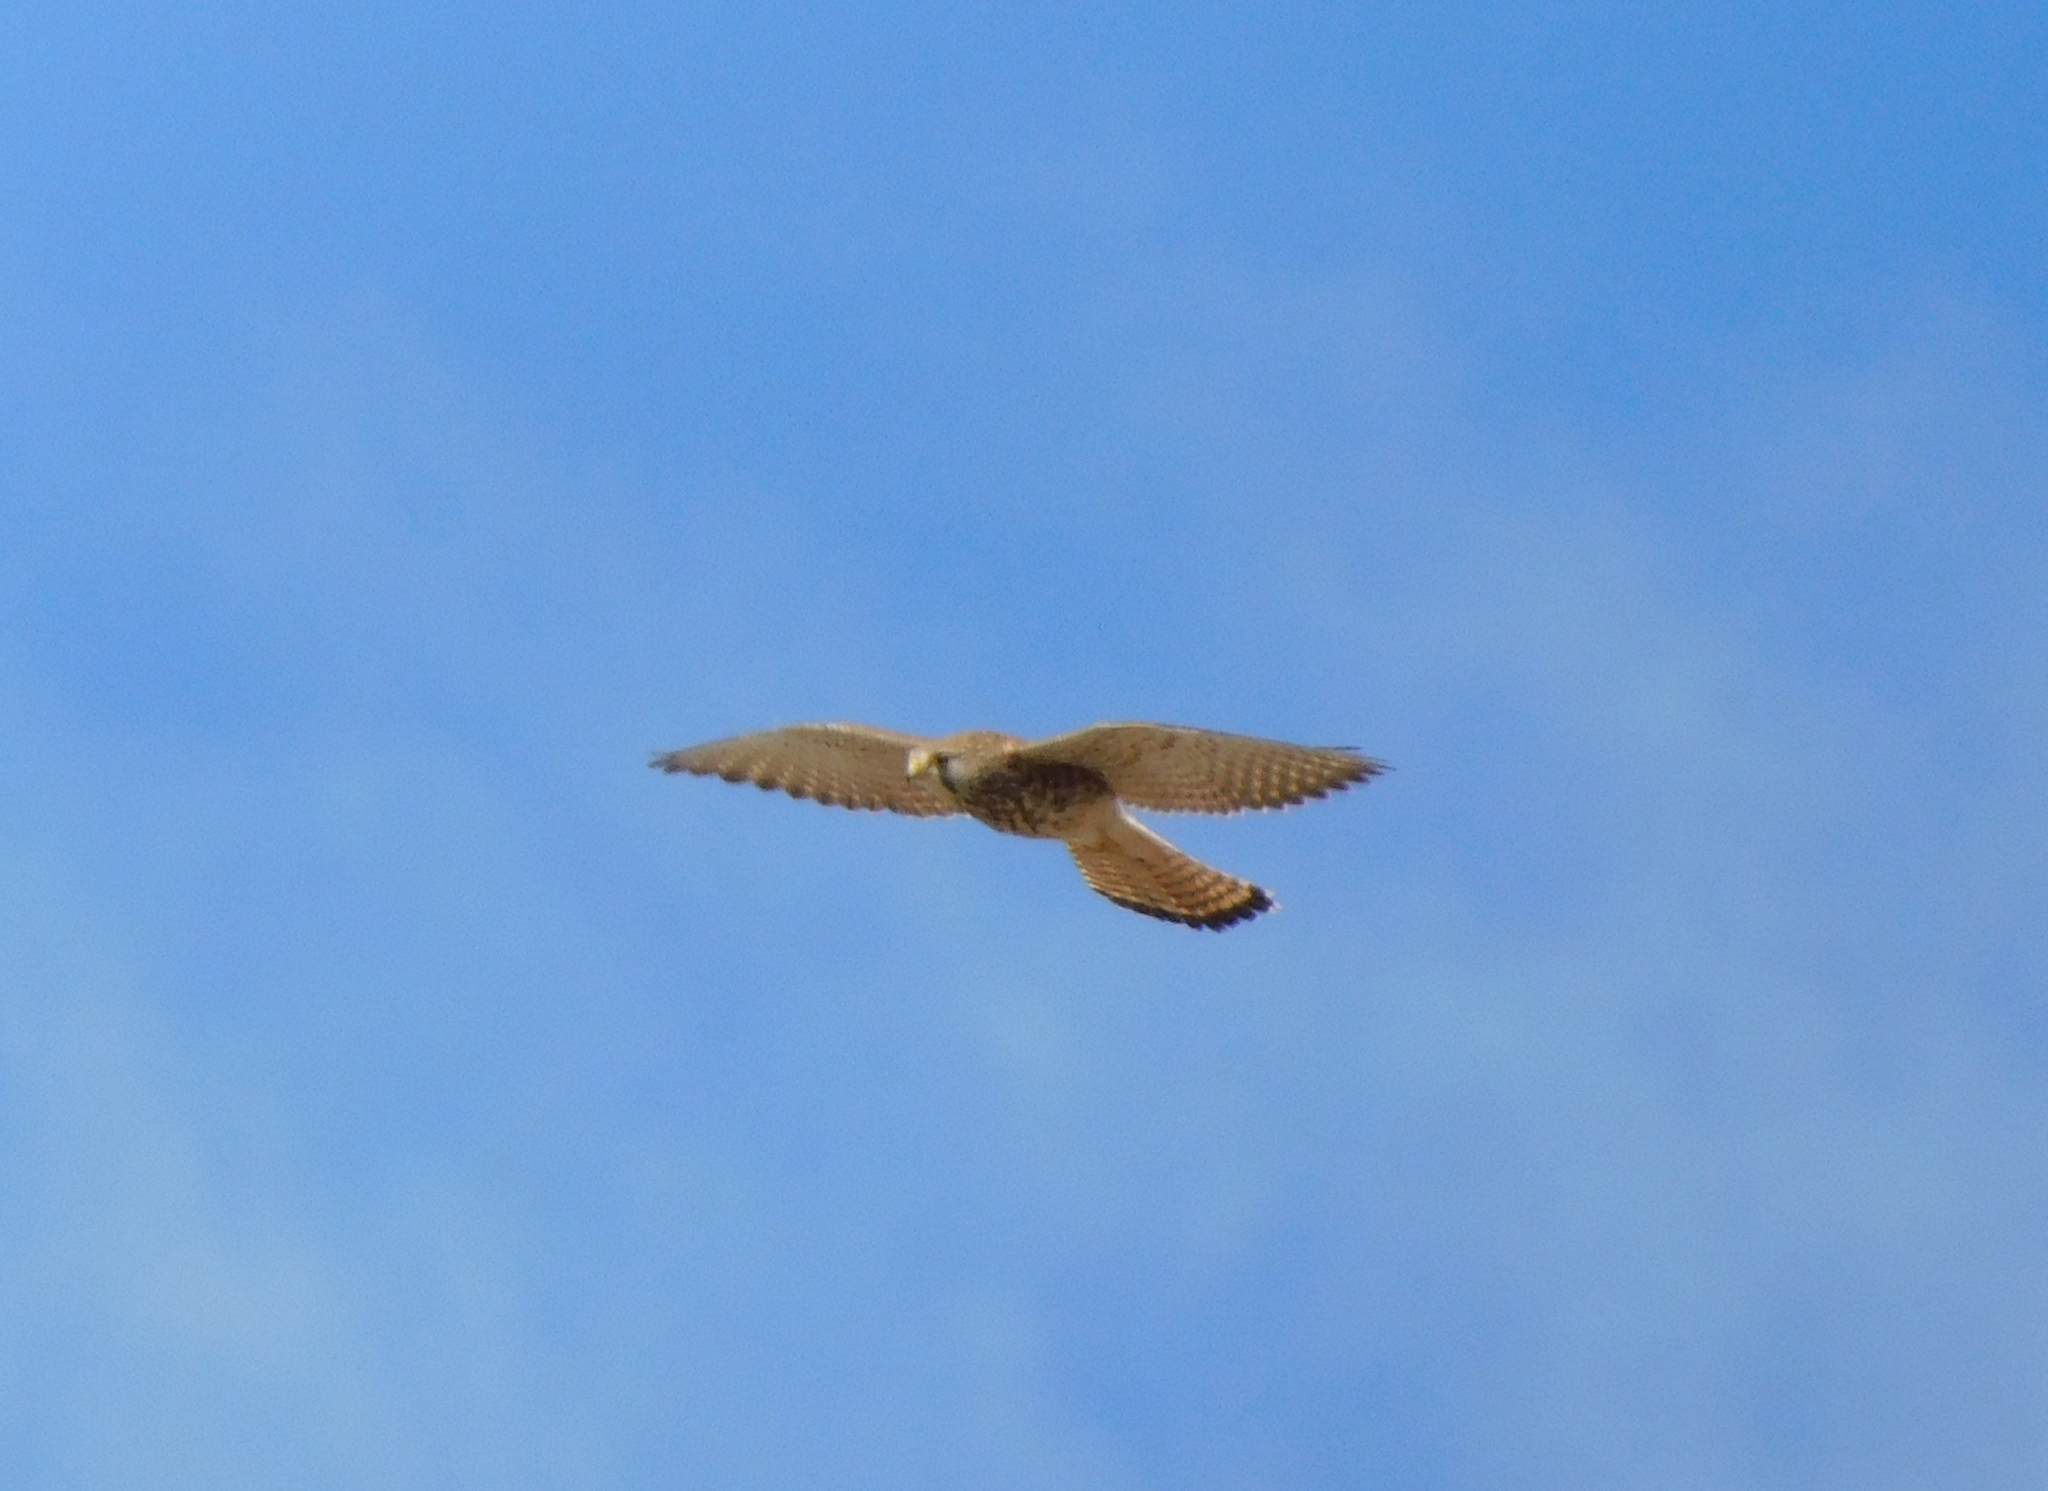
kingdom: Animalia
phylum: Chordata
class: Aves
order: Falconiformes
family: Falconidae
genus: Falco
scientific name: Falco tinnunculus
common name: Common kestrel
